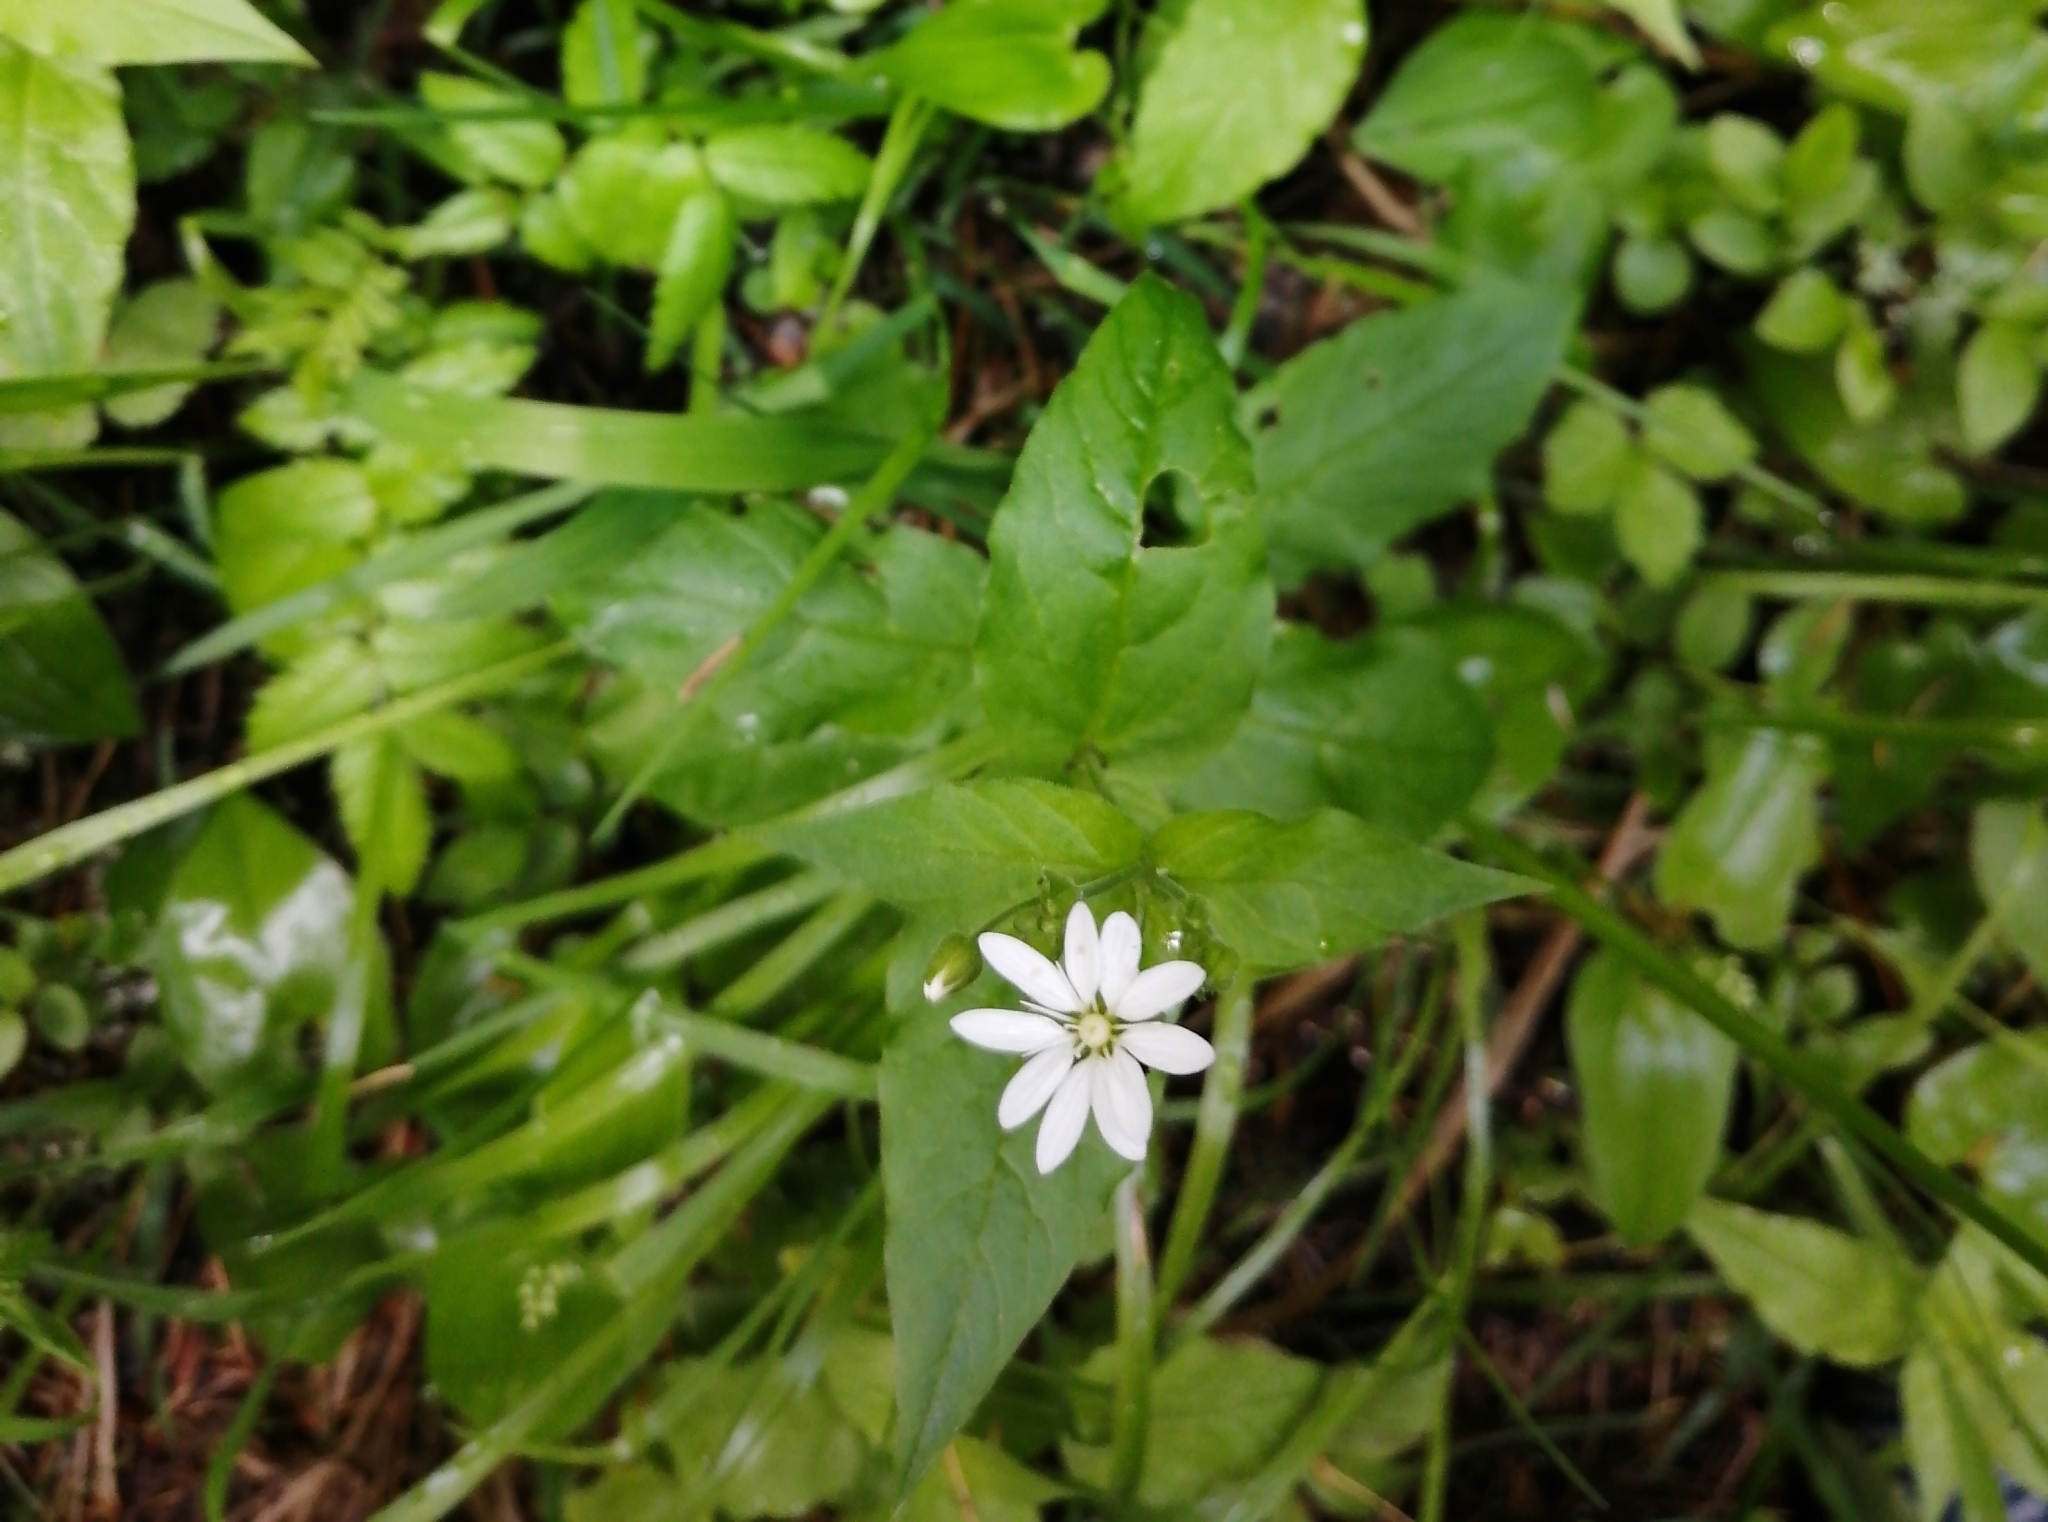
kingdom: Plantae
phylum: Tracheophyta
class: Magnoliopsida
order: Caryophyllales
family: Caryophyllaceae
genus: Stellaria
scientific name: Stellaria bungeana
